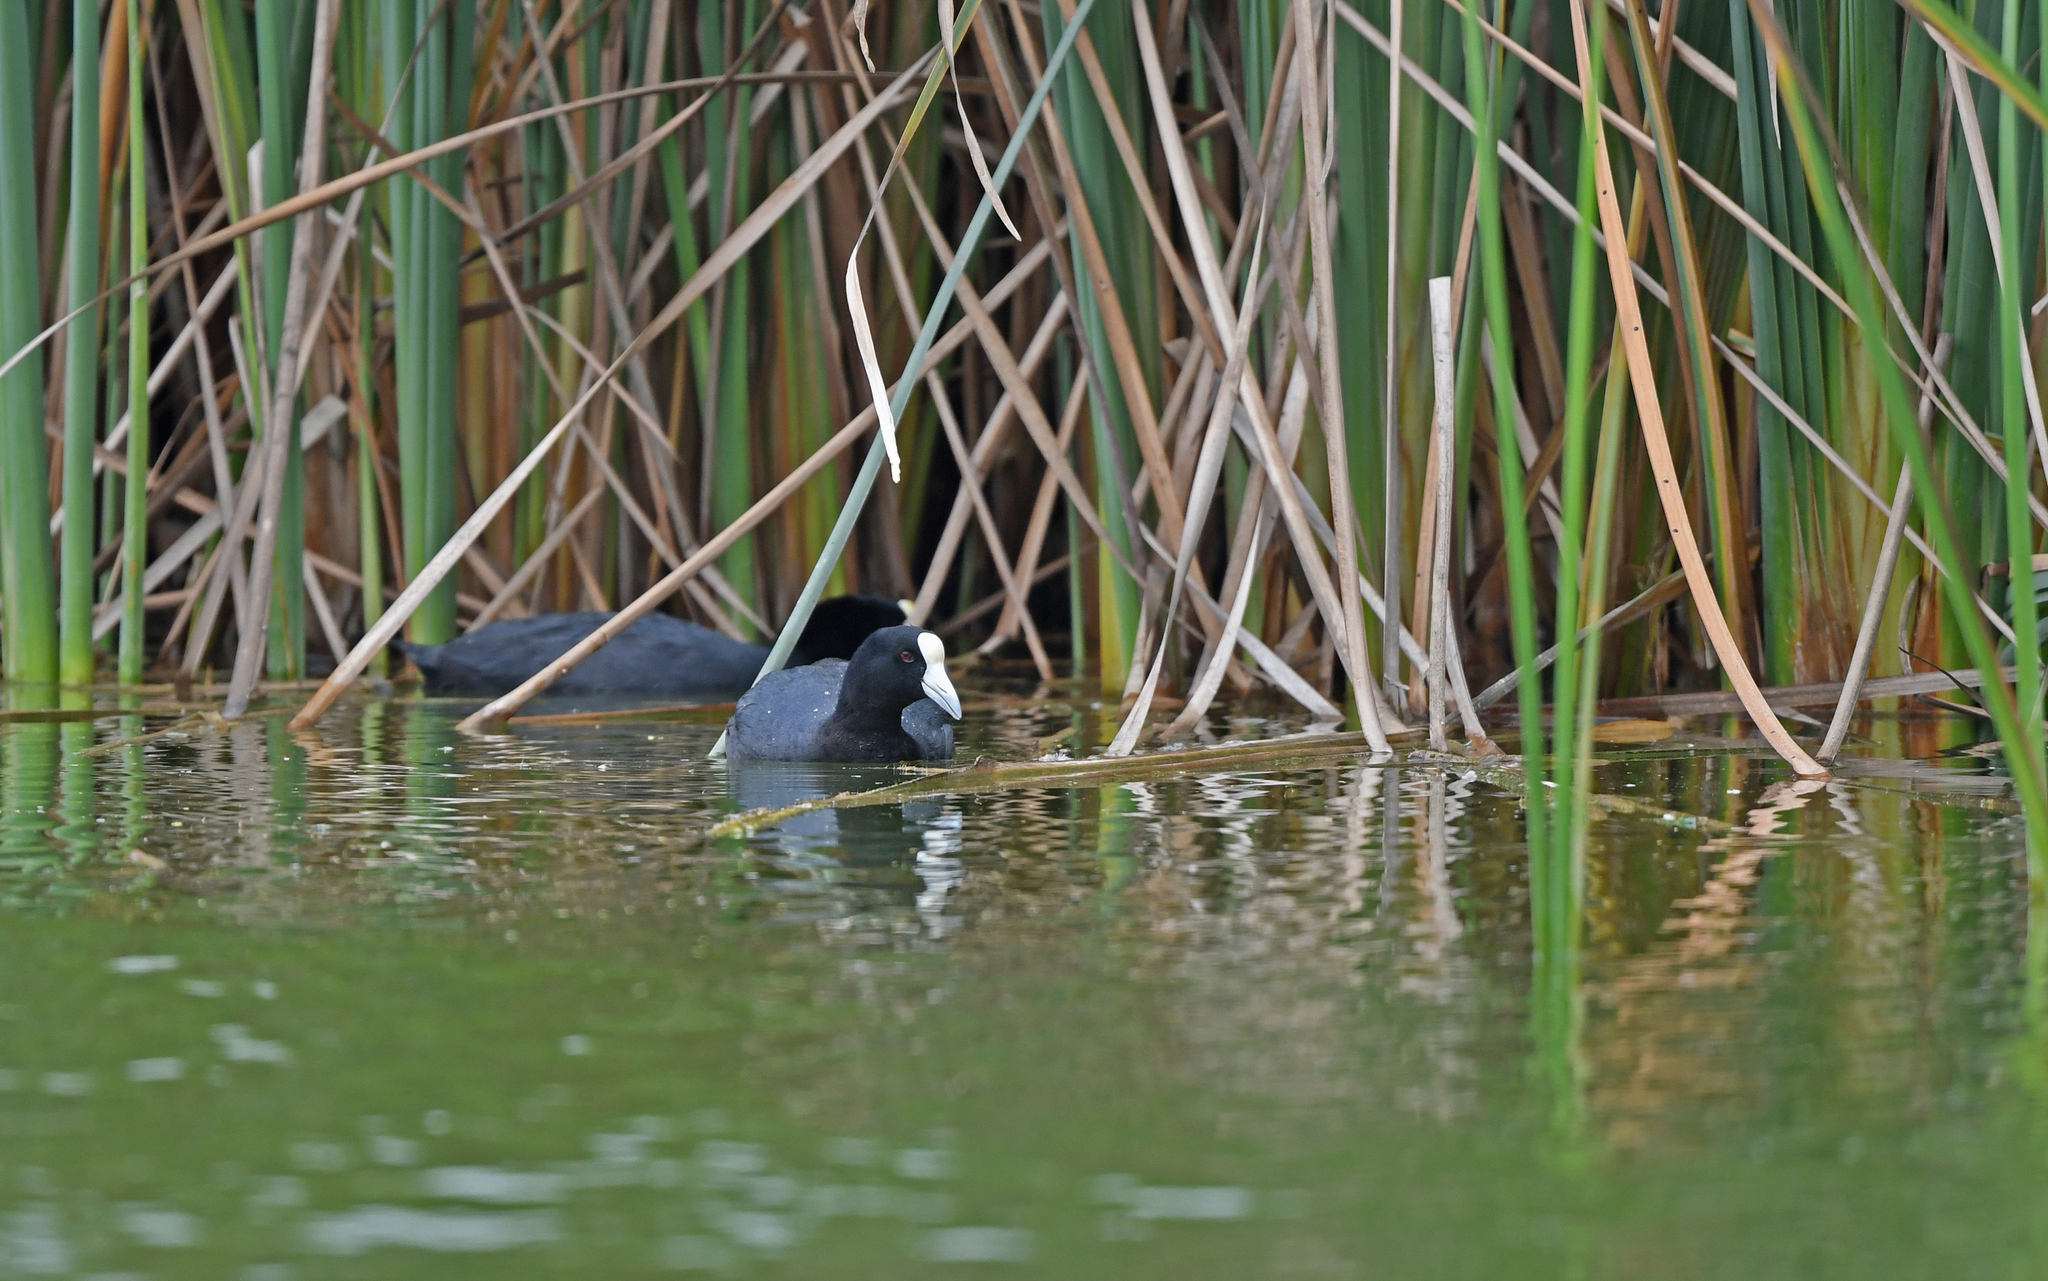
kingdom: Animalia
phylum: Chordata
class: Aves
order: Gruiformes
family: Rallidae
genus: Fulica
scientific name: Fulica ardesiaca
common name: Andean coot
